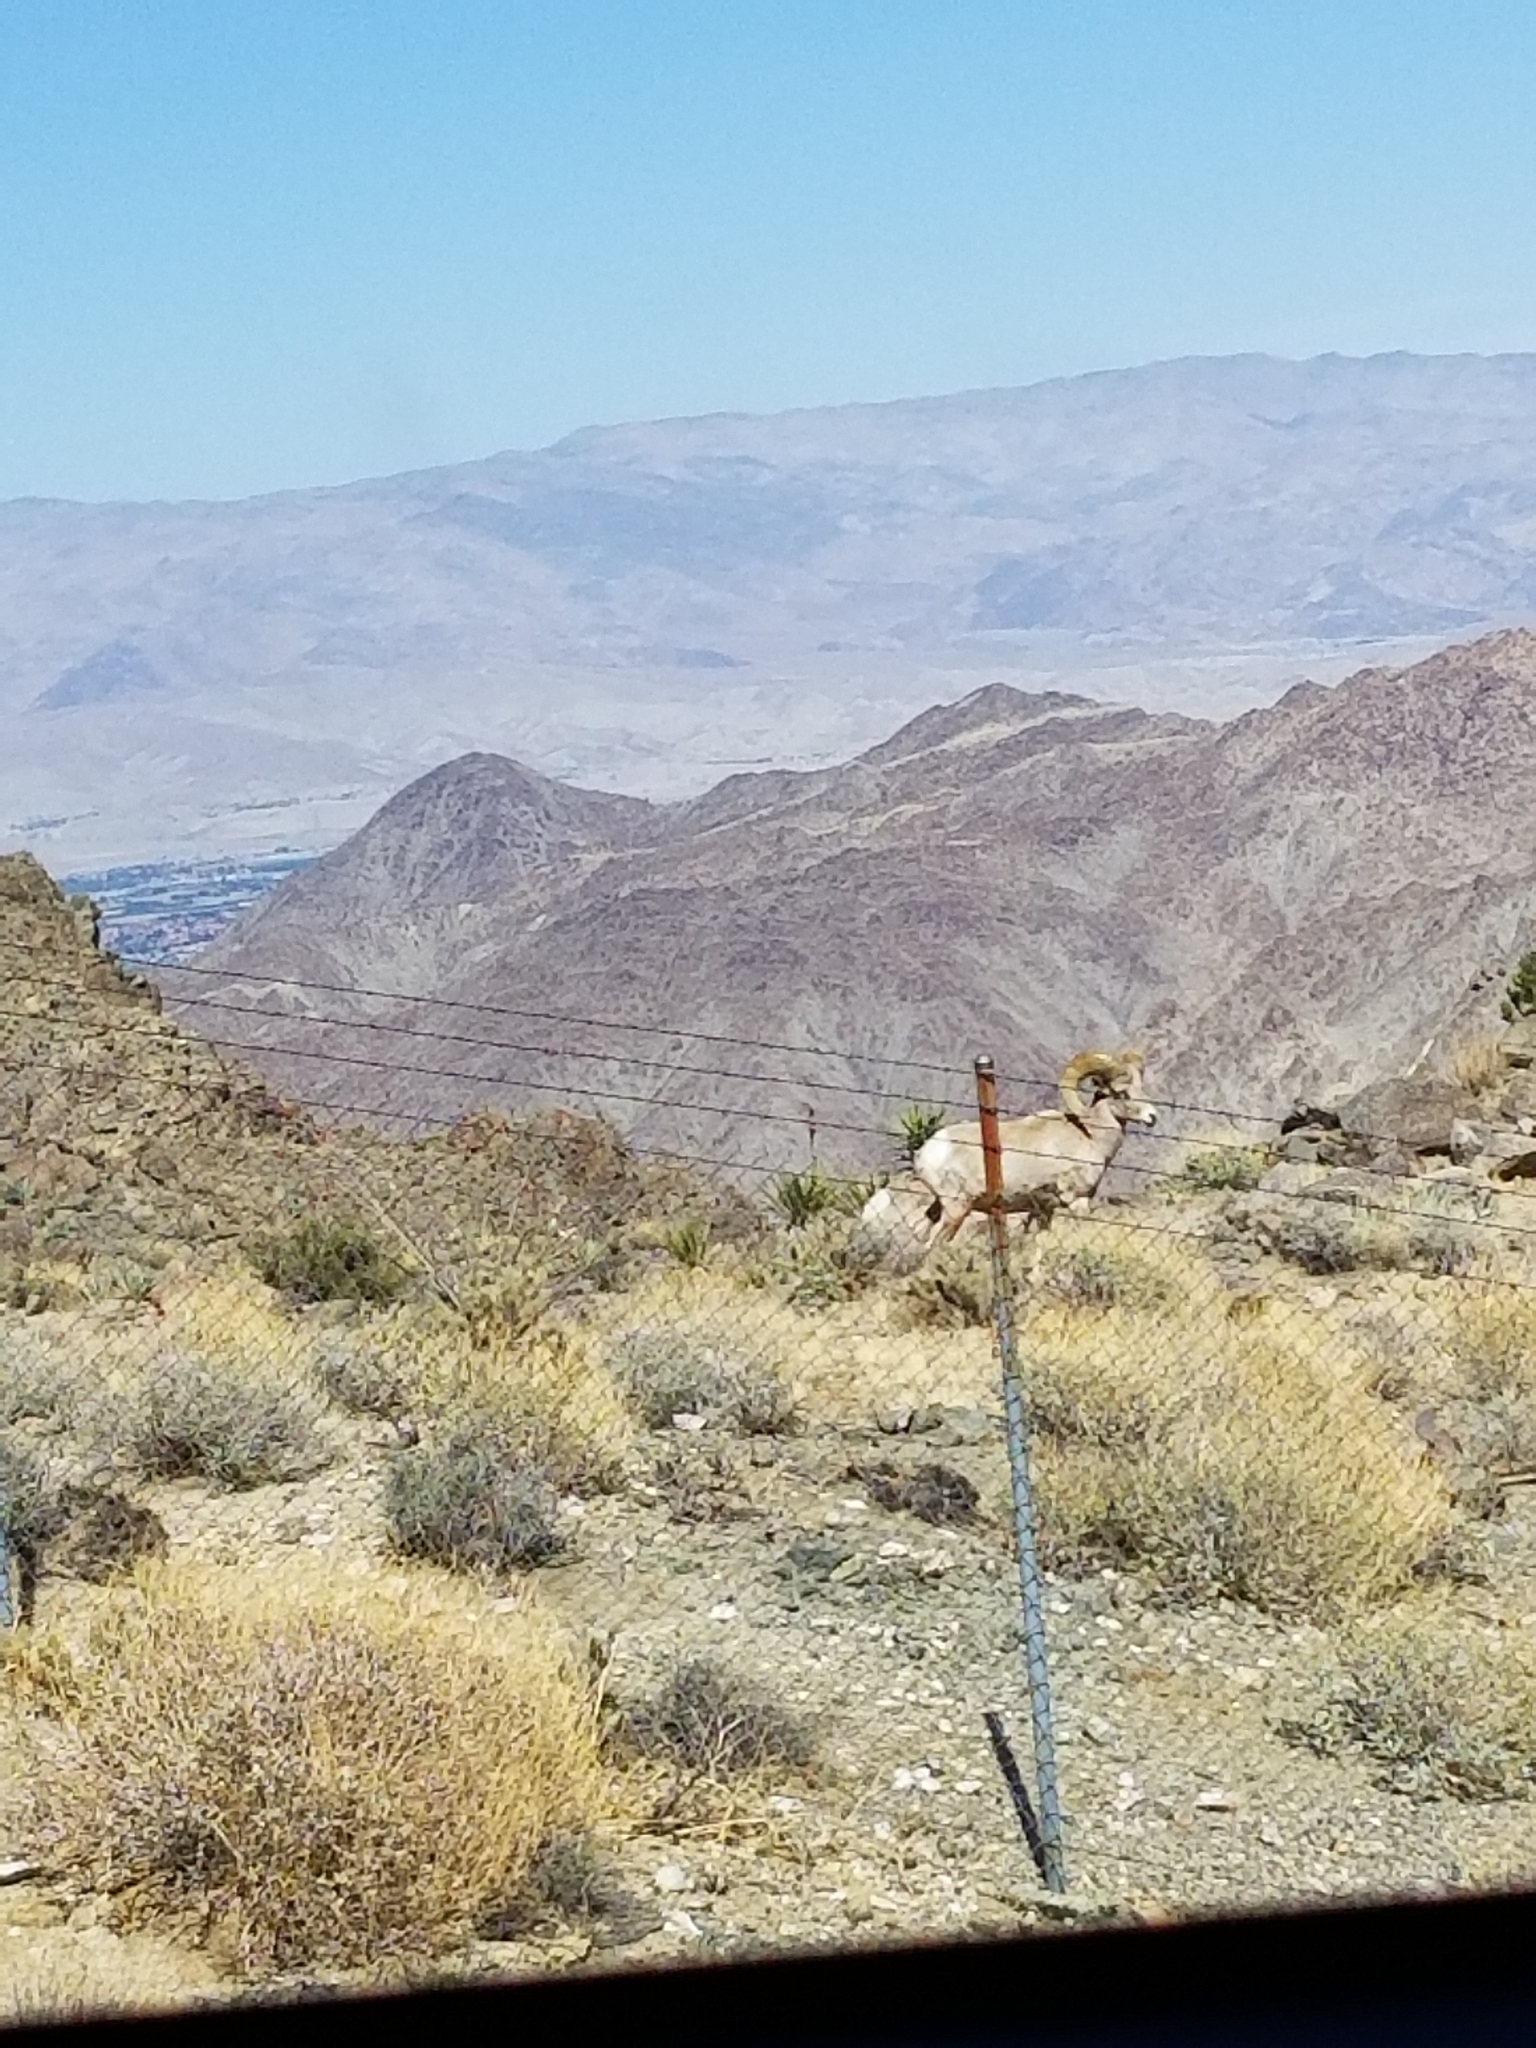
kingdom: Animalia
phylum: Chordata
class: Mammalia
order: Artiodactyla
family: Bovidae
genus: Ovis
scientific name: Ovis canadensis
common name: Bighorn sheep
